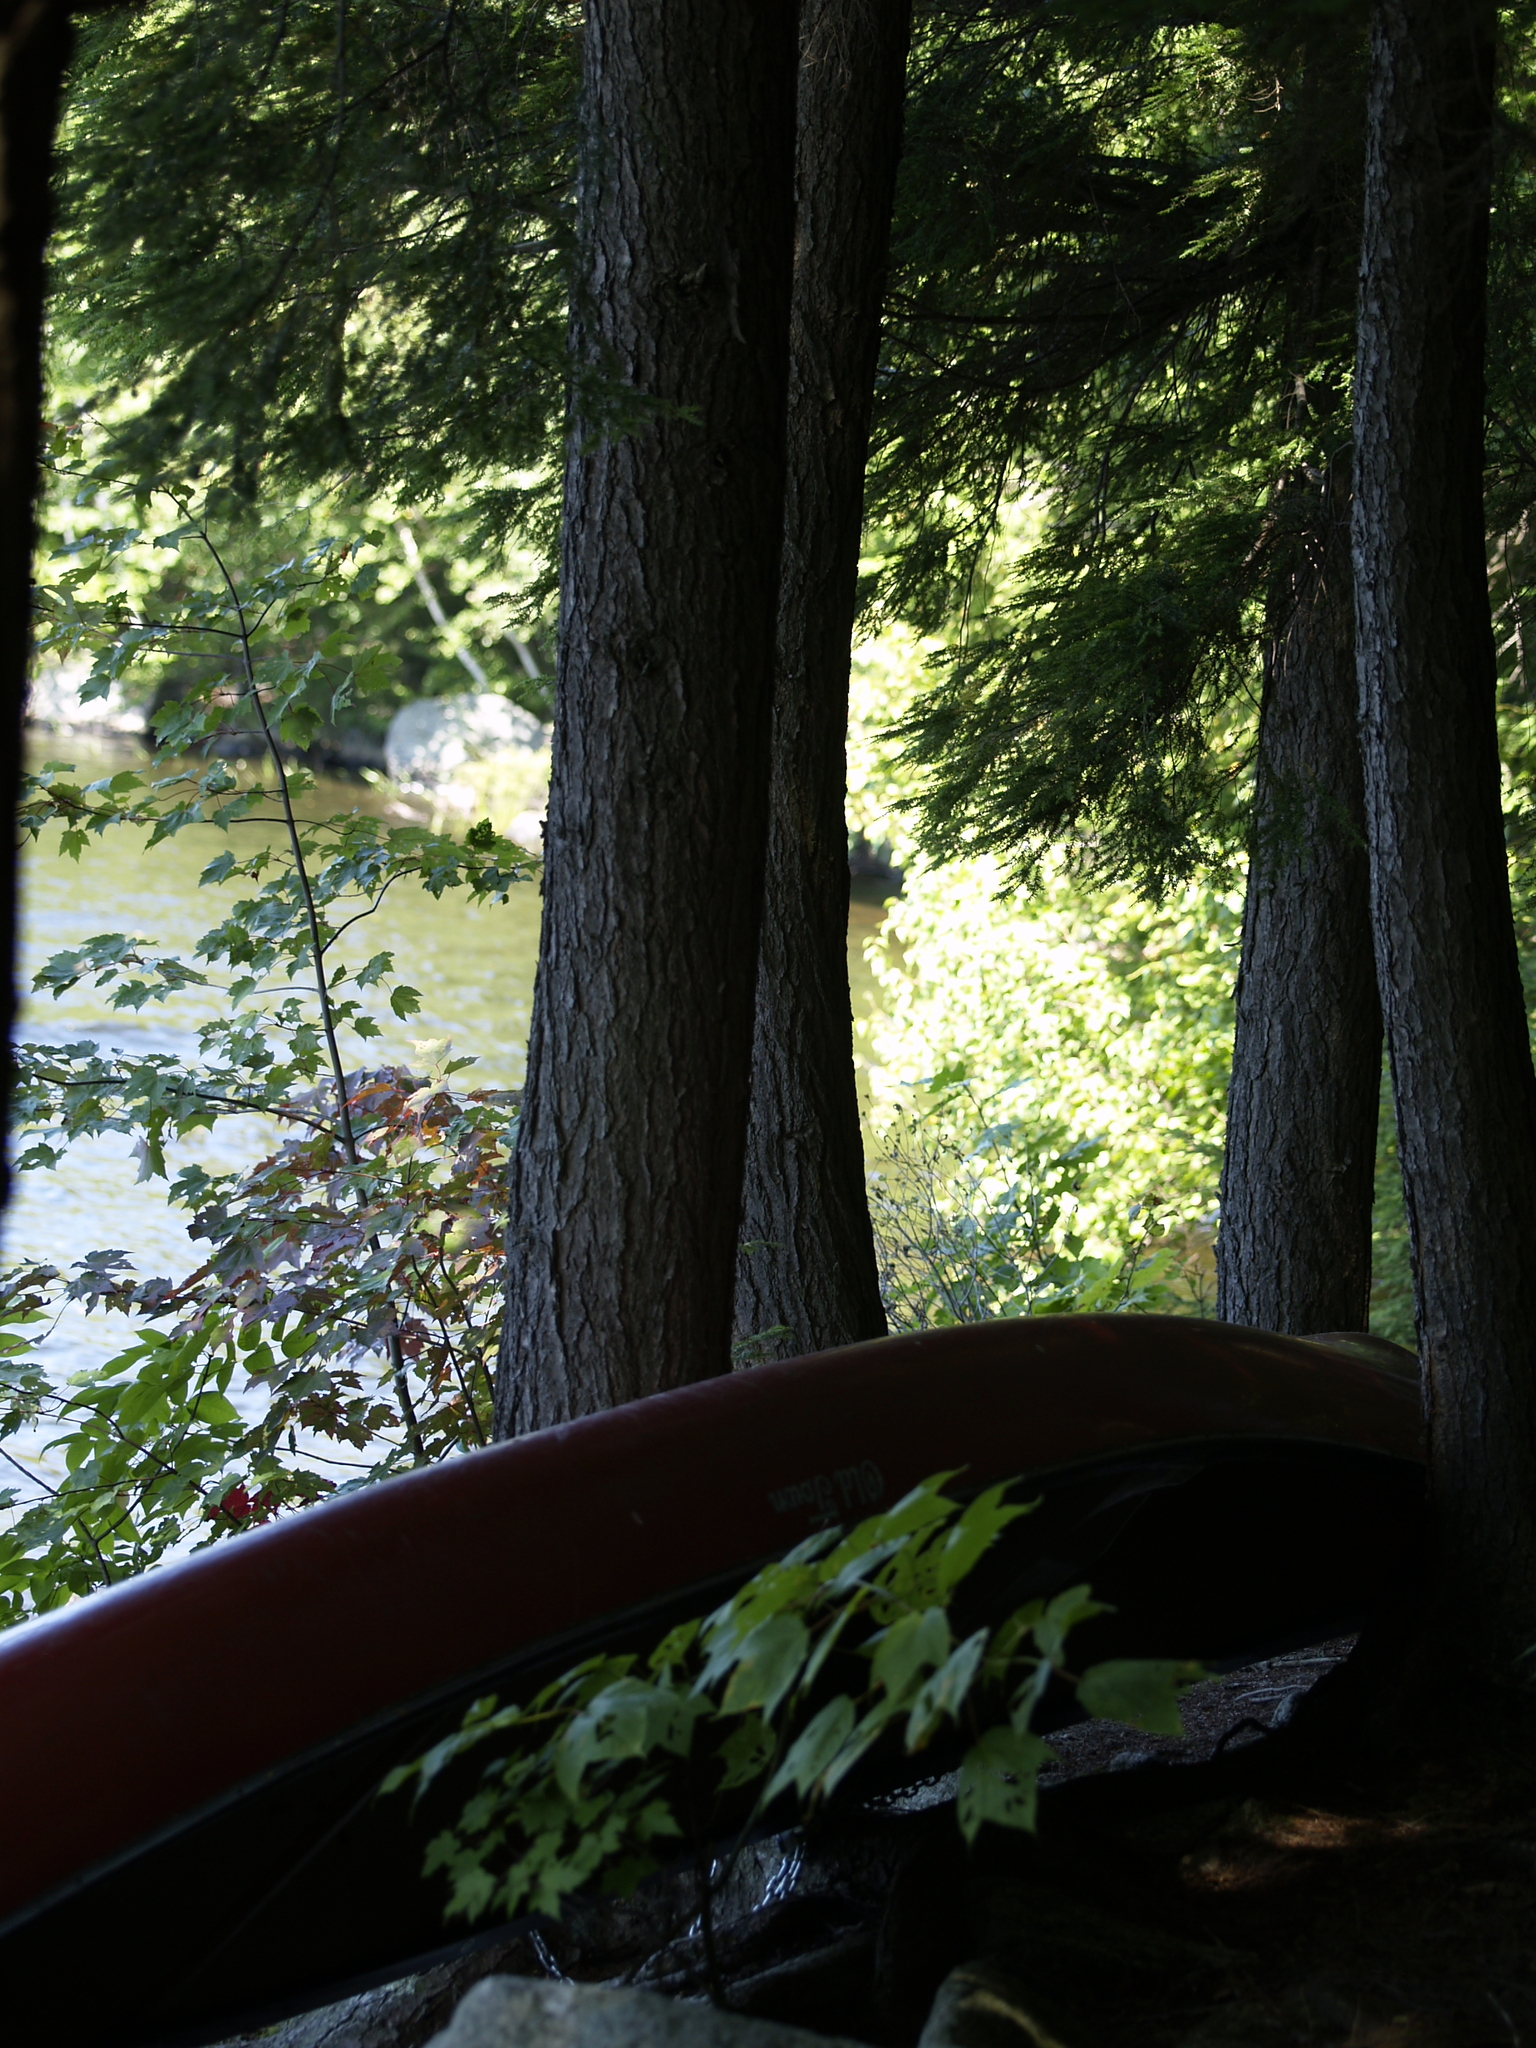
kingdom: Plantae
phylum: Tracheophyta
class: Pinopsida
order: Pinales
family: Pinaceae
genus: Tsuga
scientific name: Tsuga canadensis
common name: Eastern hemlock
